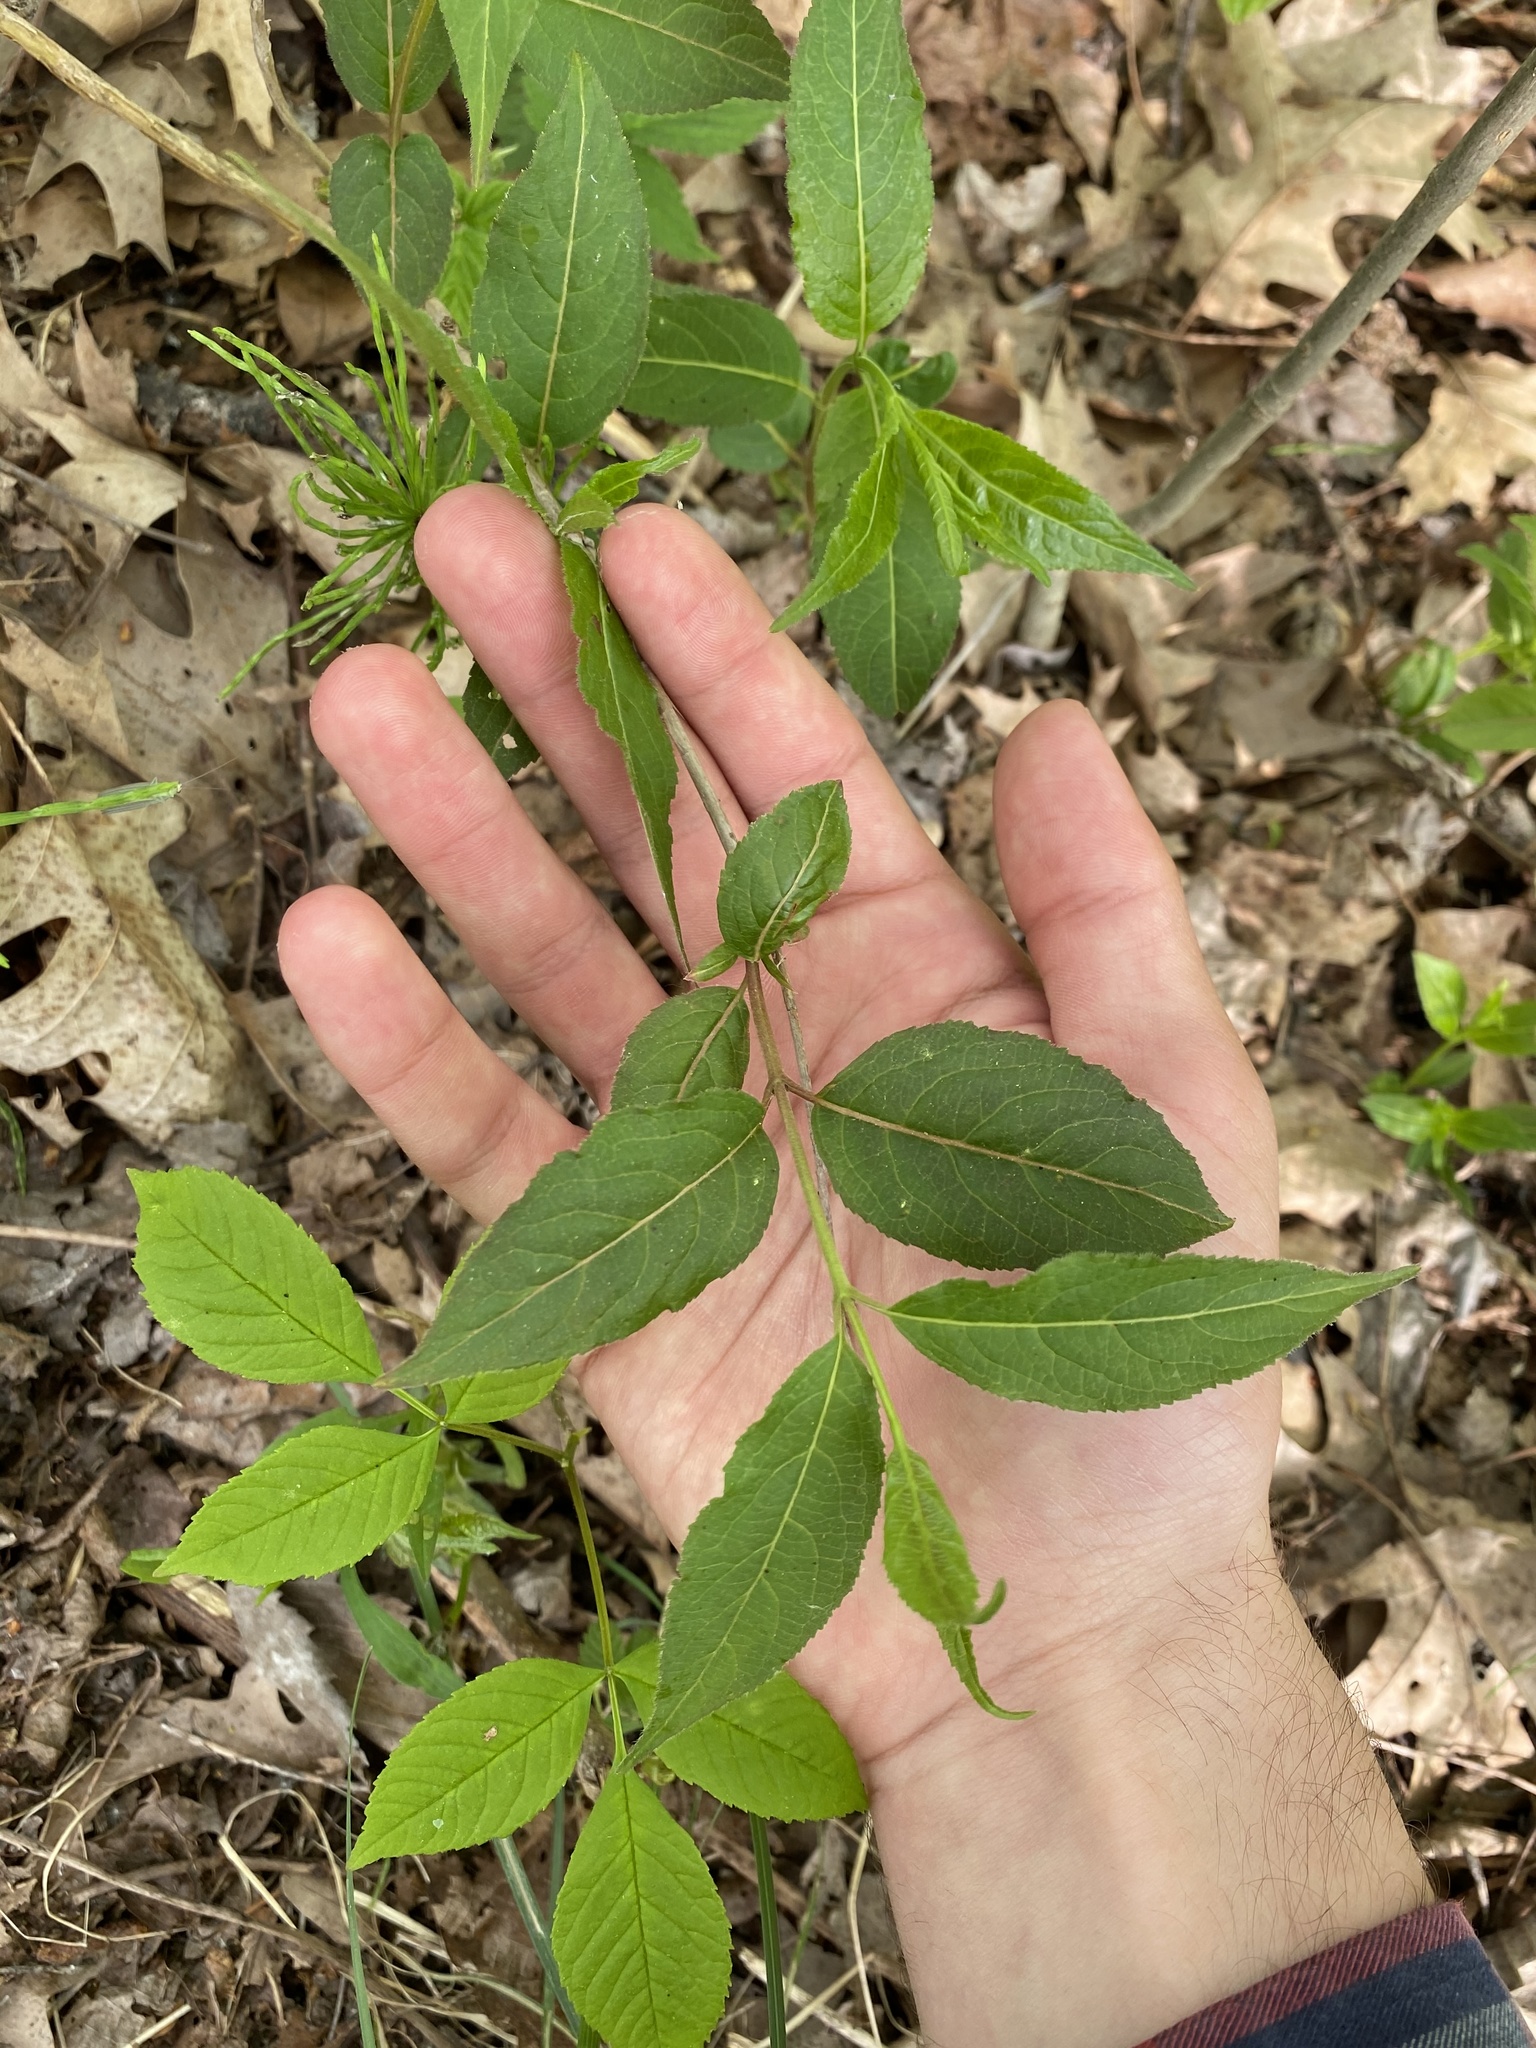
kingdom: Plantae
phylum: Tracheophyta
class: Magnoliopsida
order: Dipsacales
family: Caprifoliaceae
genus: Diervilla
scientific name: Diervilla lonicera
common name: Bush-honeysuckle
